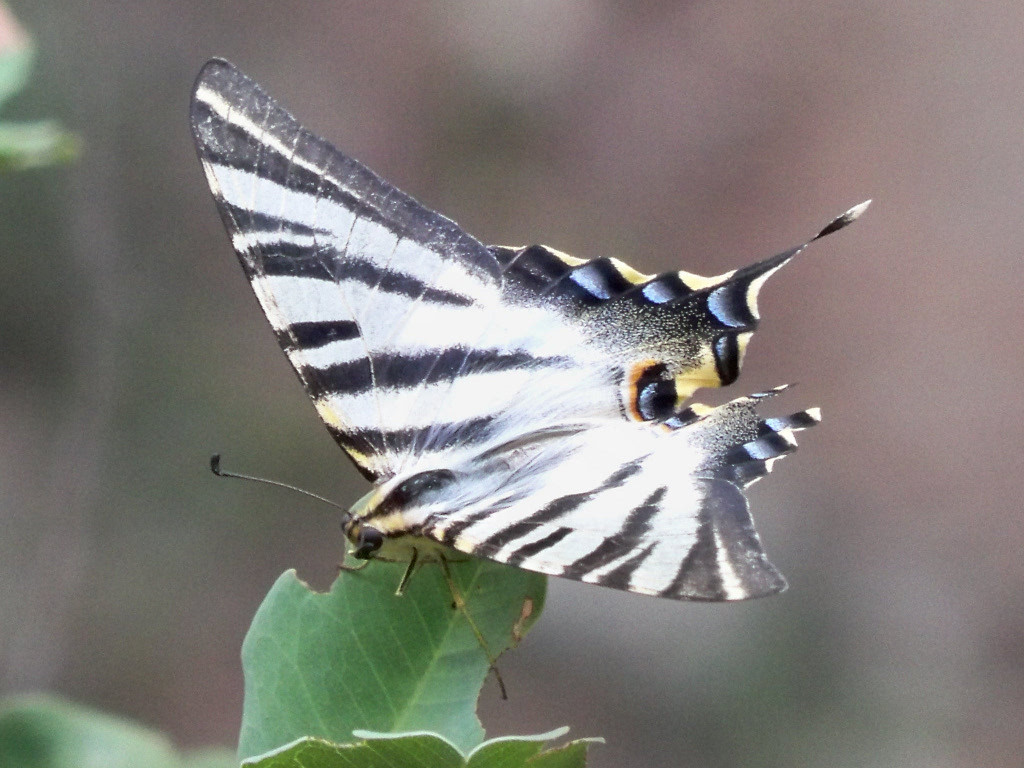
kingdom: Animalia
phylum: Arthropoda
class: Insecta
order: Lepidoptera
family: Papilionidae
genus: Iphiclides
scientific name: Iphiclides feisthamelii
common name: Iberian scarce swallowtail
